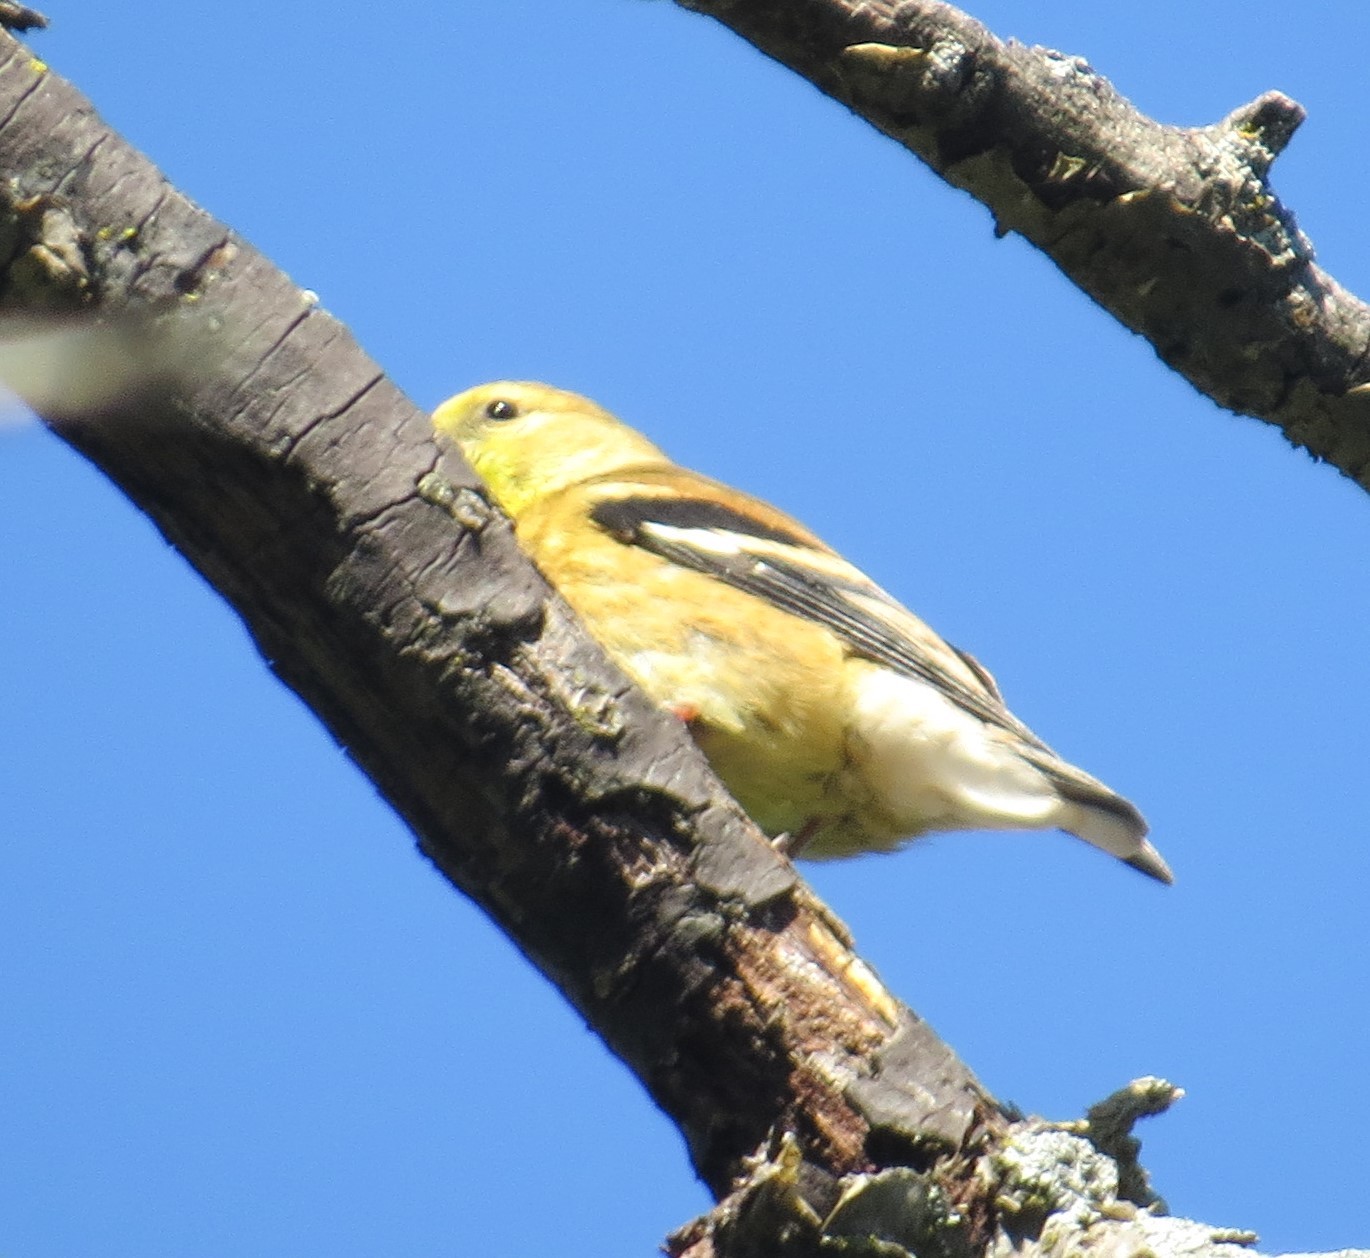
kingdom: Animalia
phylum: Chordata
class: Aves
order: Passeriformes
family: Fringillidae
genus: Spinus
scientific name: Spinus tristis
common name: American goldfinch
